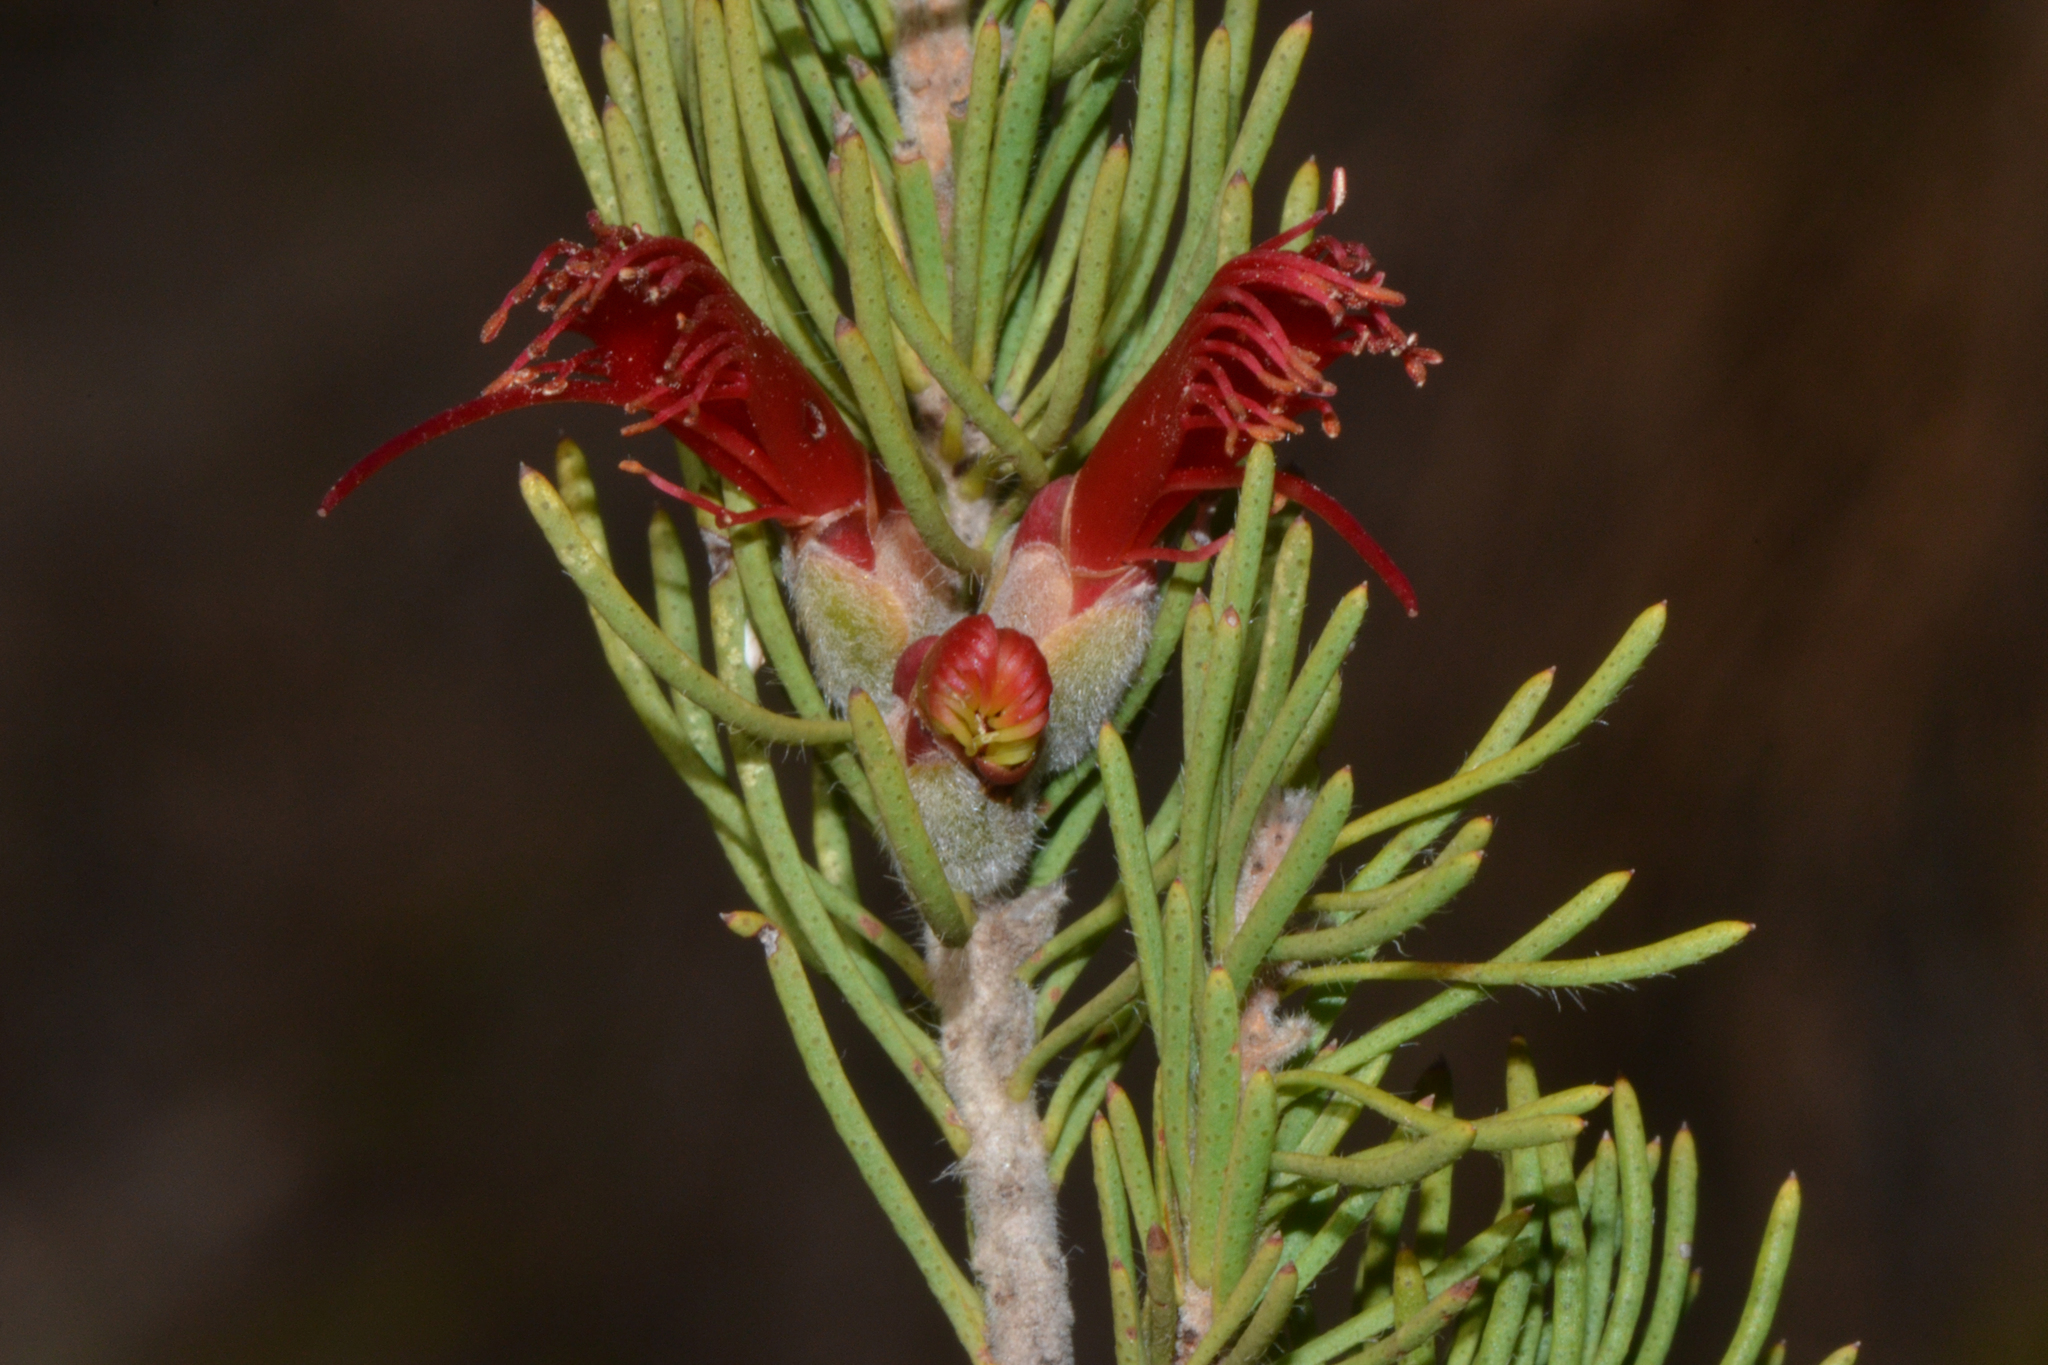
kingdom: Plantae
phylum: Tracheophyta
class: Magnoliopsida
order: Myrtales
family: Myrtaceae
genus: Melaleuca
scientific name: Melaleuca cruenta
